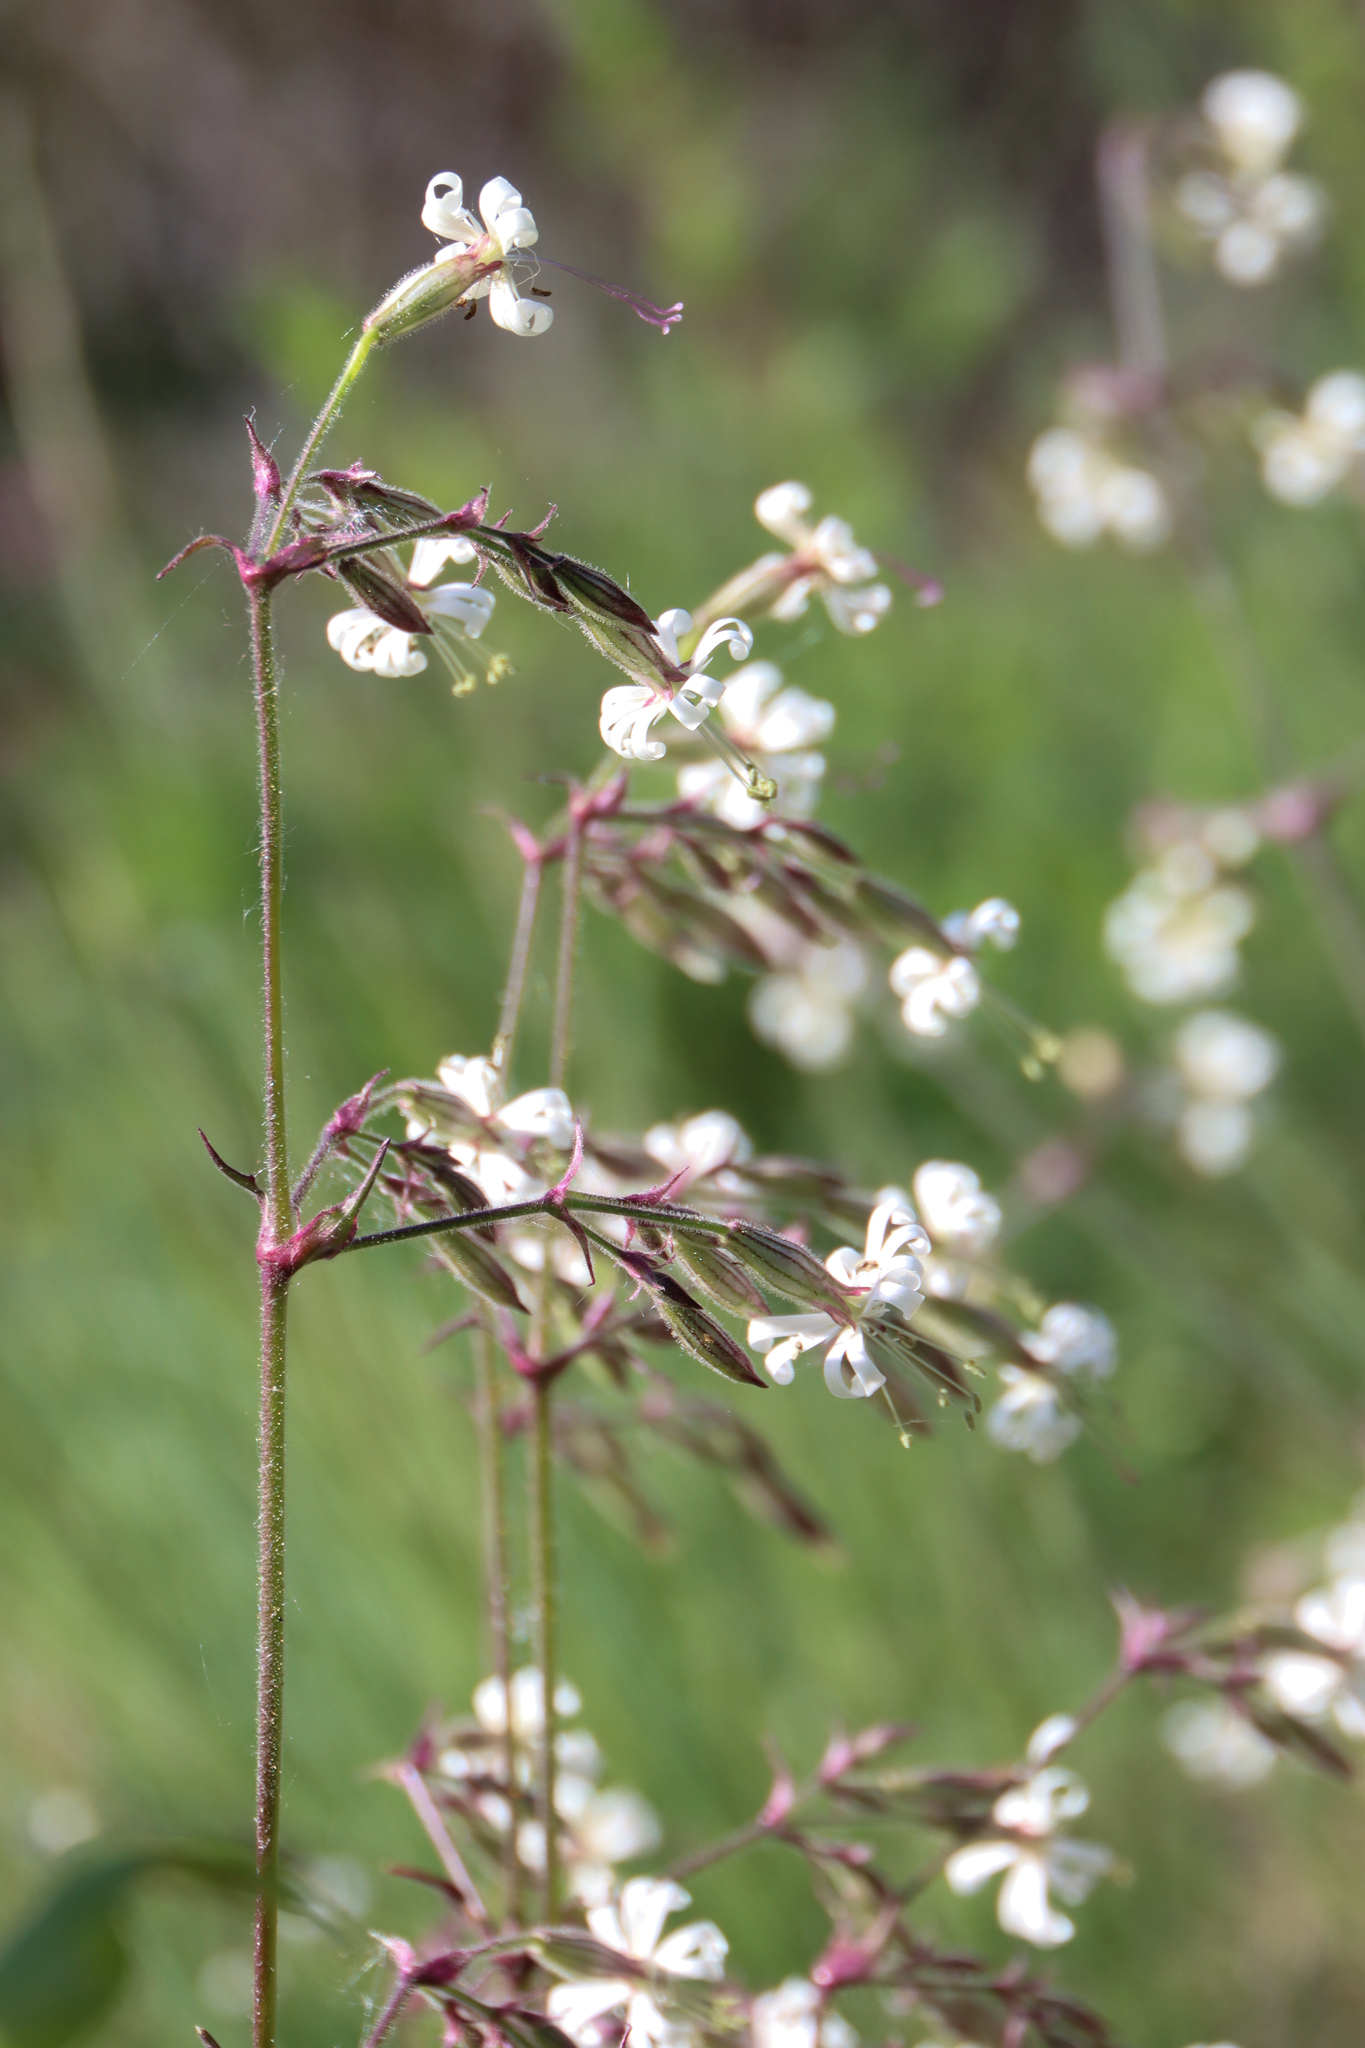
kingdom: Plantae
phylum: Tracheophyta
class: Magnoliopsida
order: Caryophyllales
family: Caryophyllaceae
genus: Silene
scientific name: Silene nutans
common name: Nottingham catchfly
